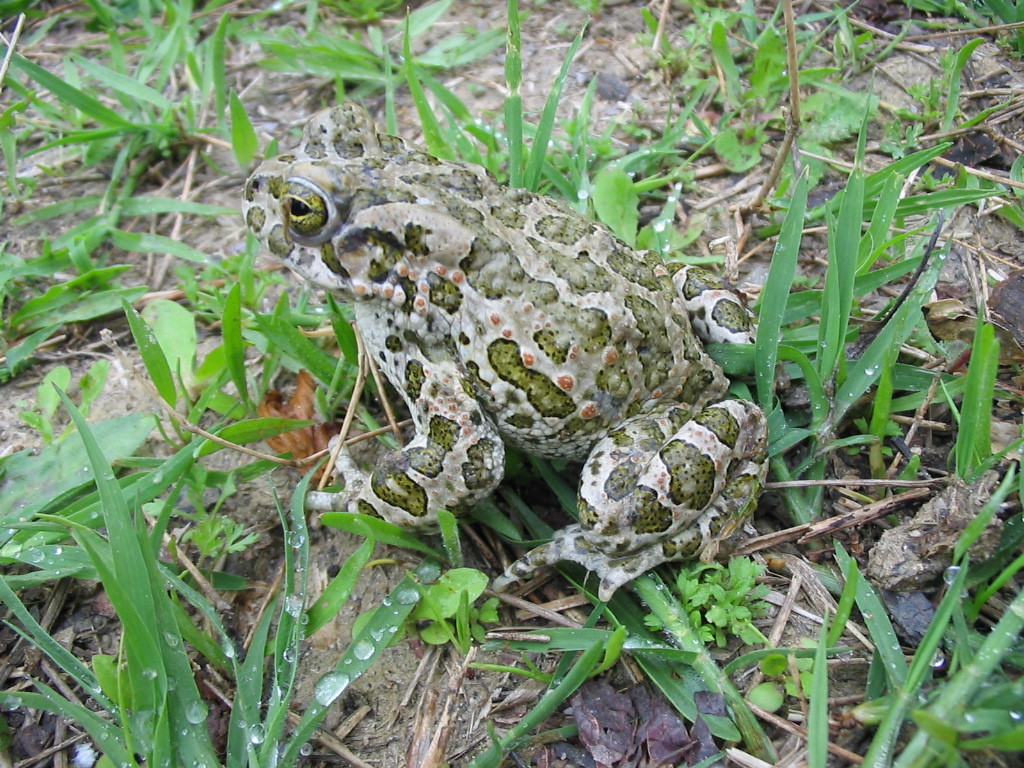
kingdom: Animalia
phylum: Chordata
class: Amphibia
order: Anura
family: Bufonidae
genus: Bufotes
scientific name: Bufotes viridis
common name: European green toad
